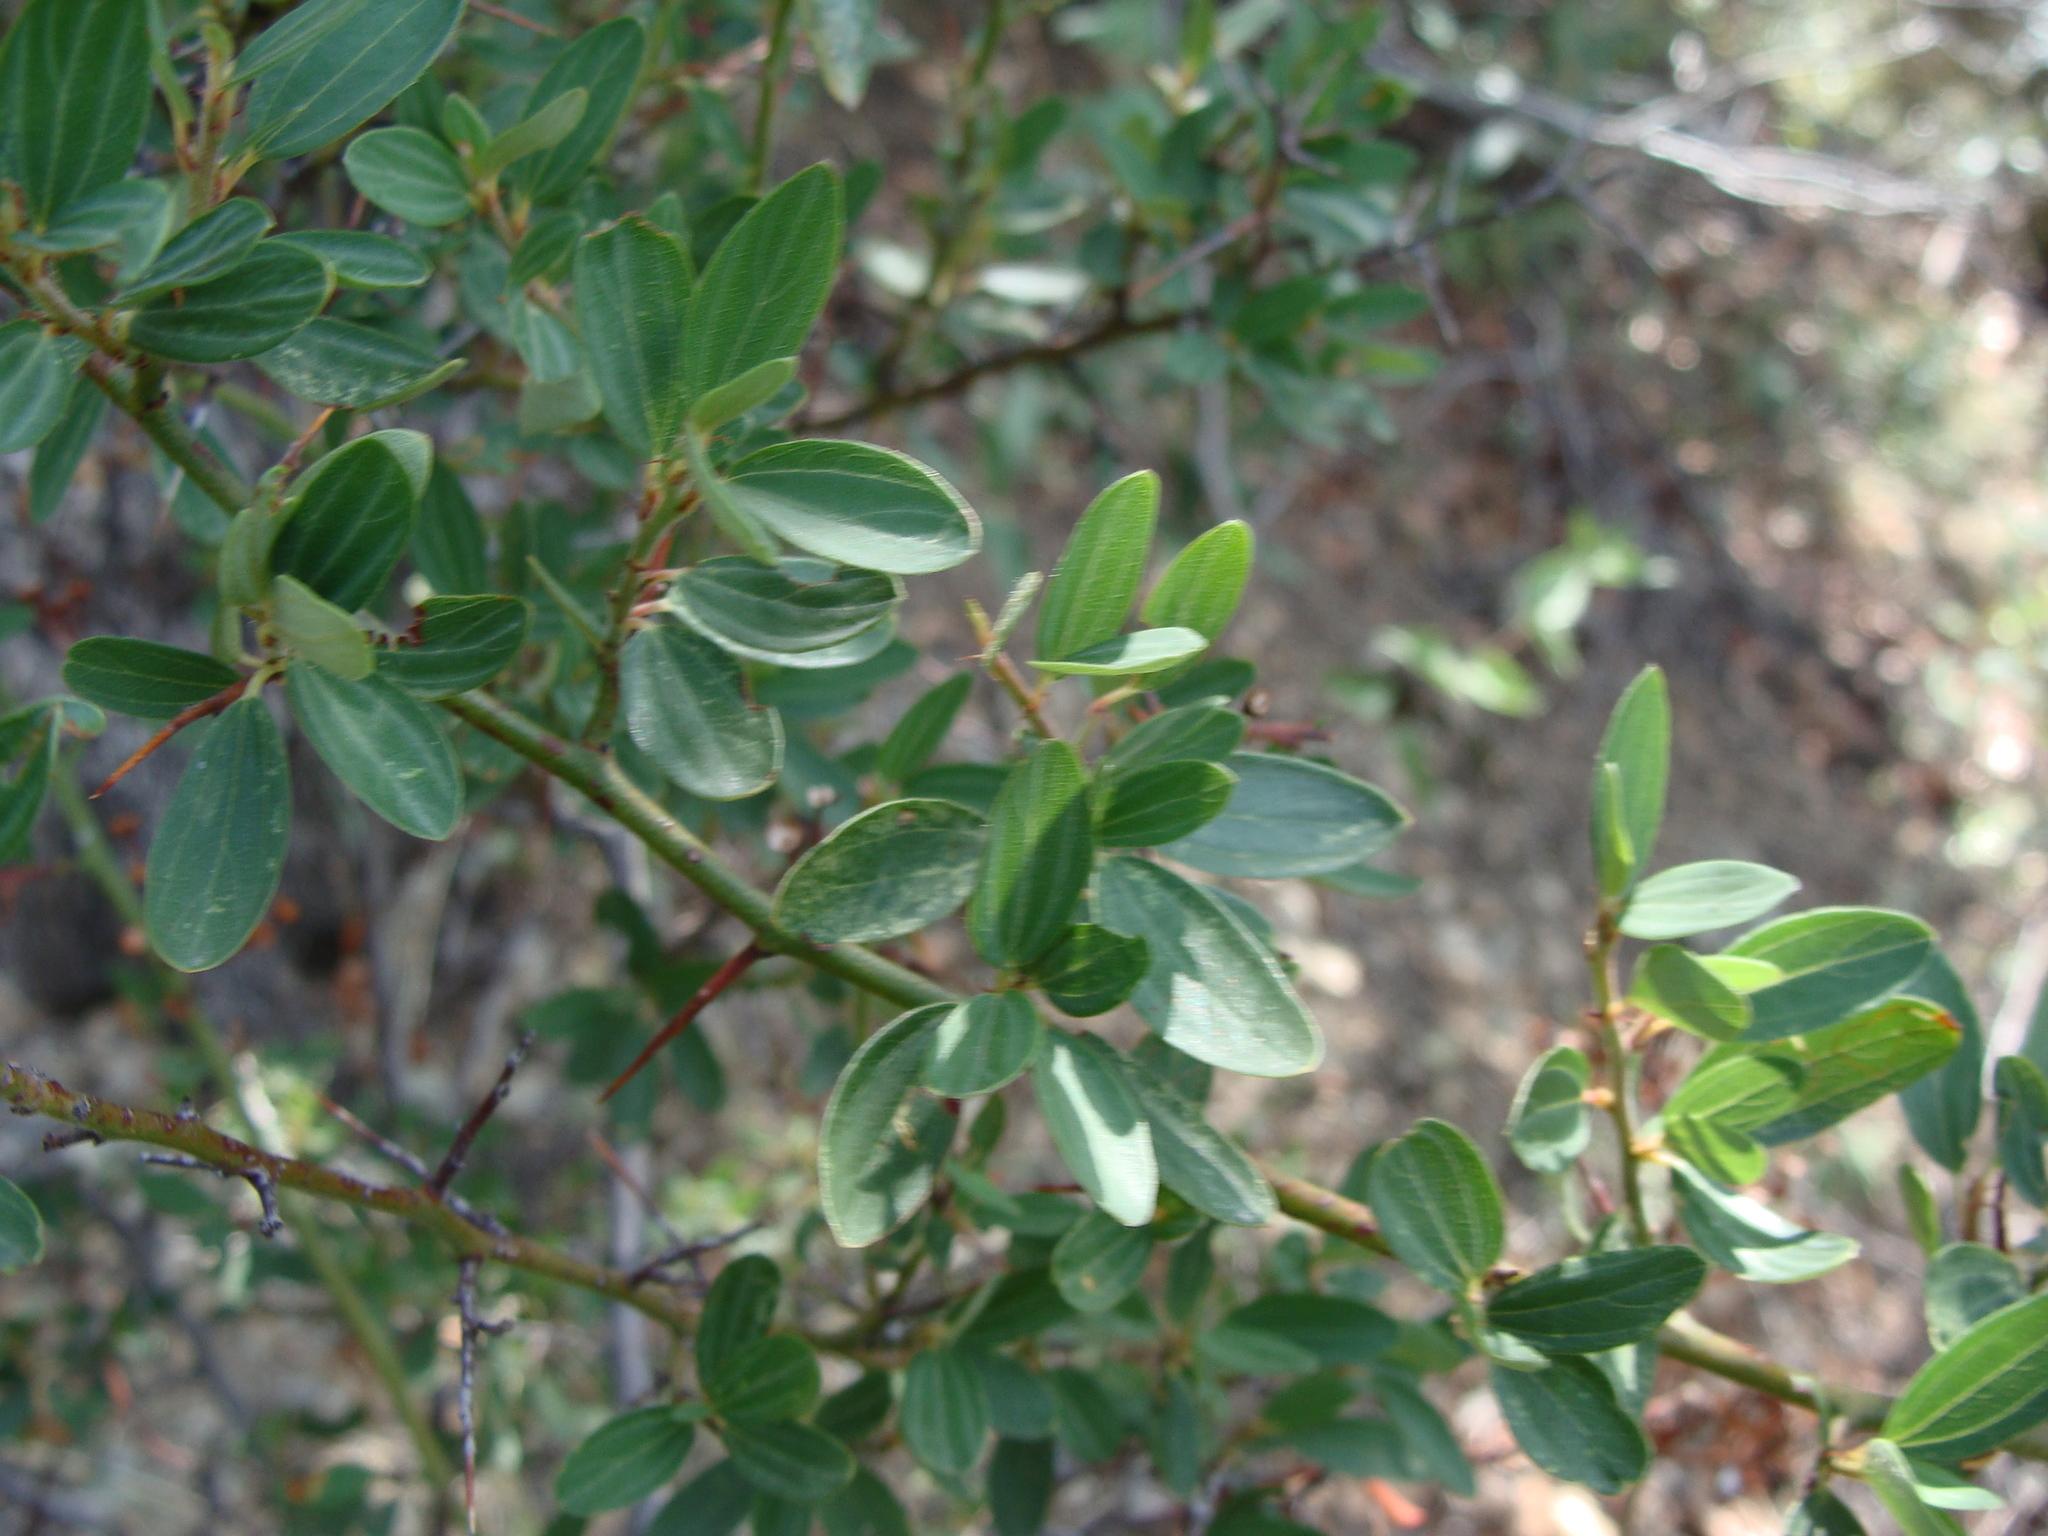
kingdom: Plantae
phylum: Tracheophyta
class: Magnoliopsida
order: Rosales
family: Rhamnaceae
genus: Ceanothus
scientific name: Ceanothus buxifolius
